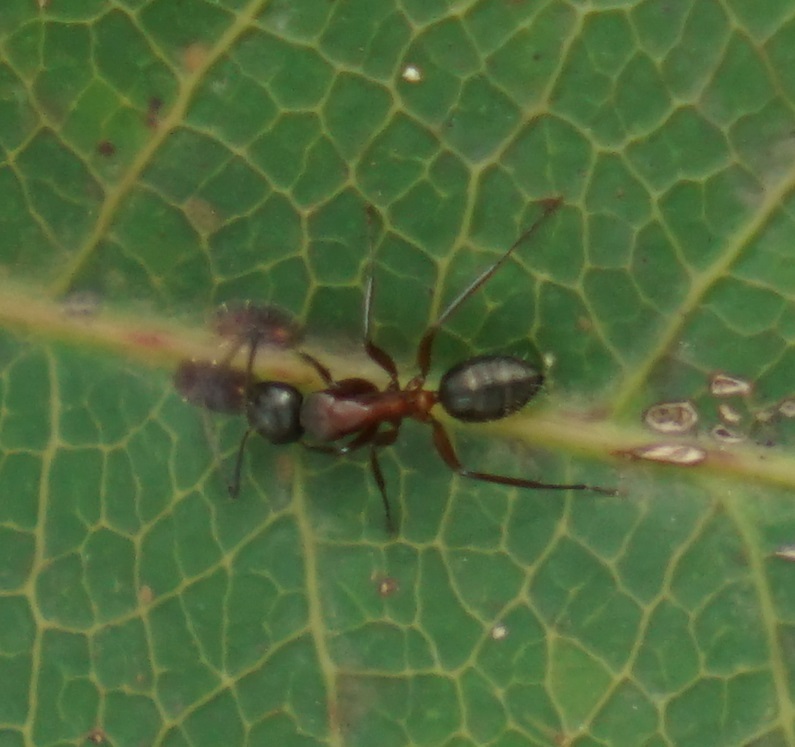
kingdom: Animalia
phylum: Arthropoda
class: Insecta
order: Hymenoptera
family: Formicidae
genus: Camponotus
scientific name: Camponotus innexus
